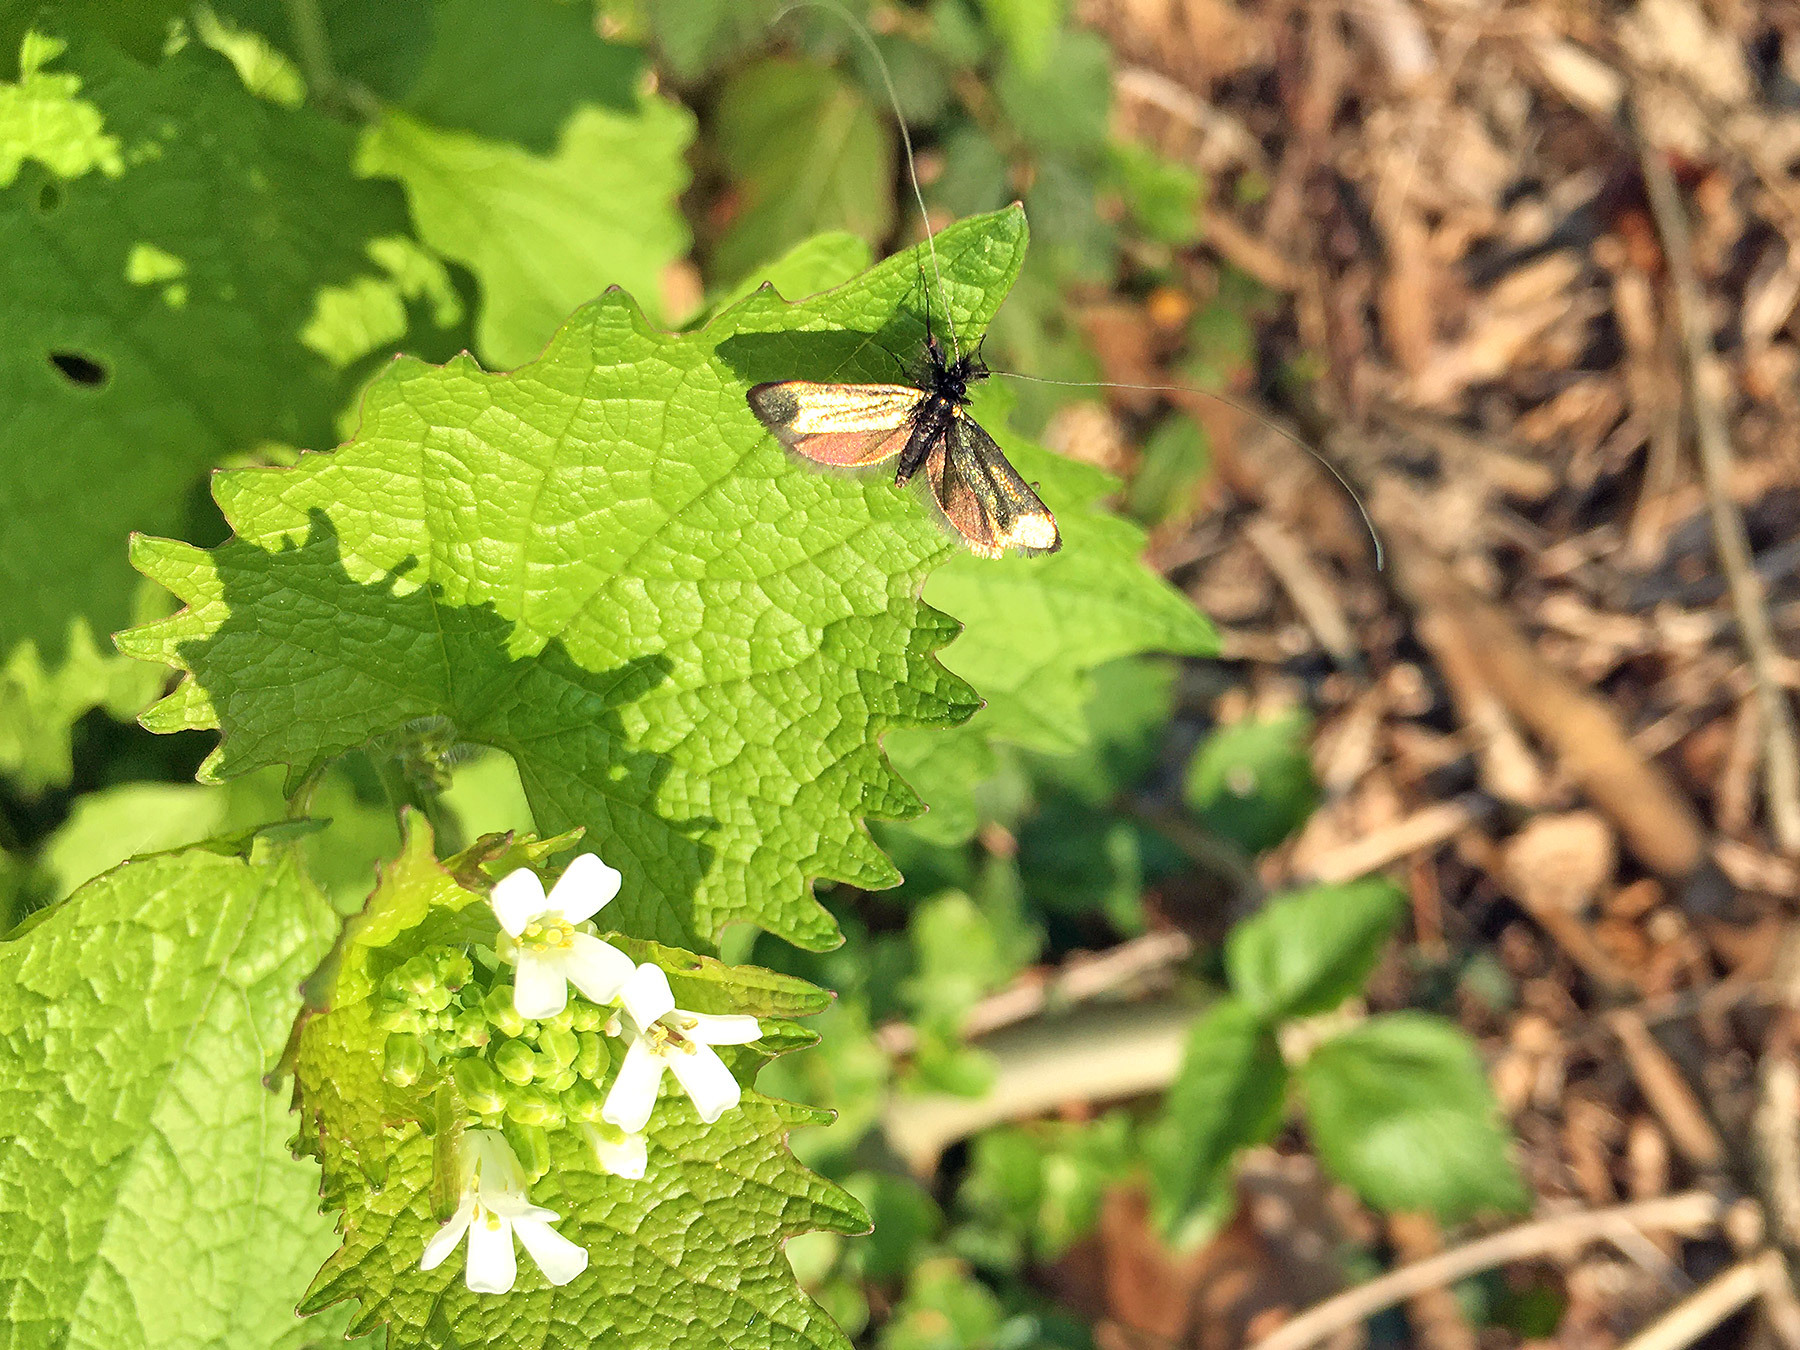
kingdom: Animalia
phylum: Arthropoda
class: Insecta
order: Lepidoptera
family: Adelidae
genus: Adela
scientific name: Adela viridella
